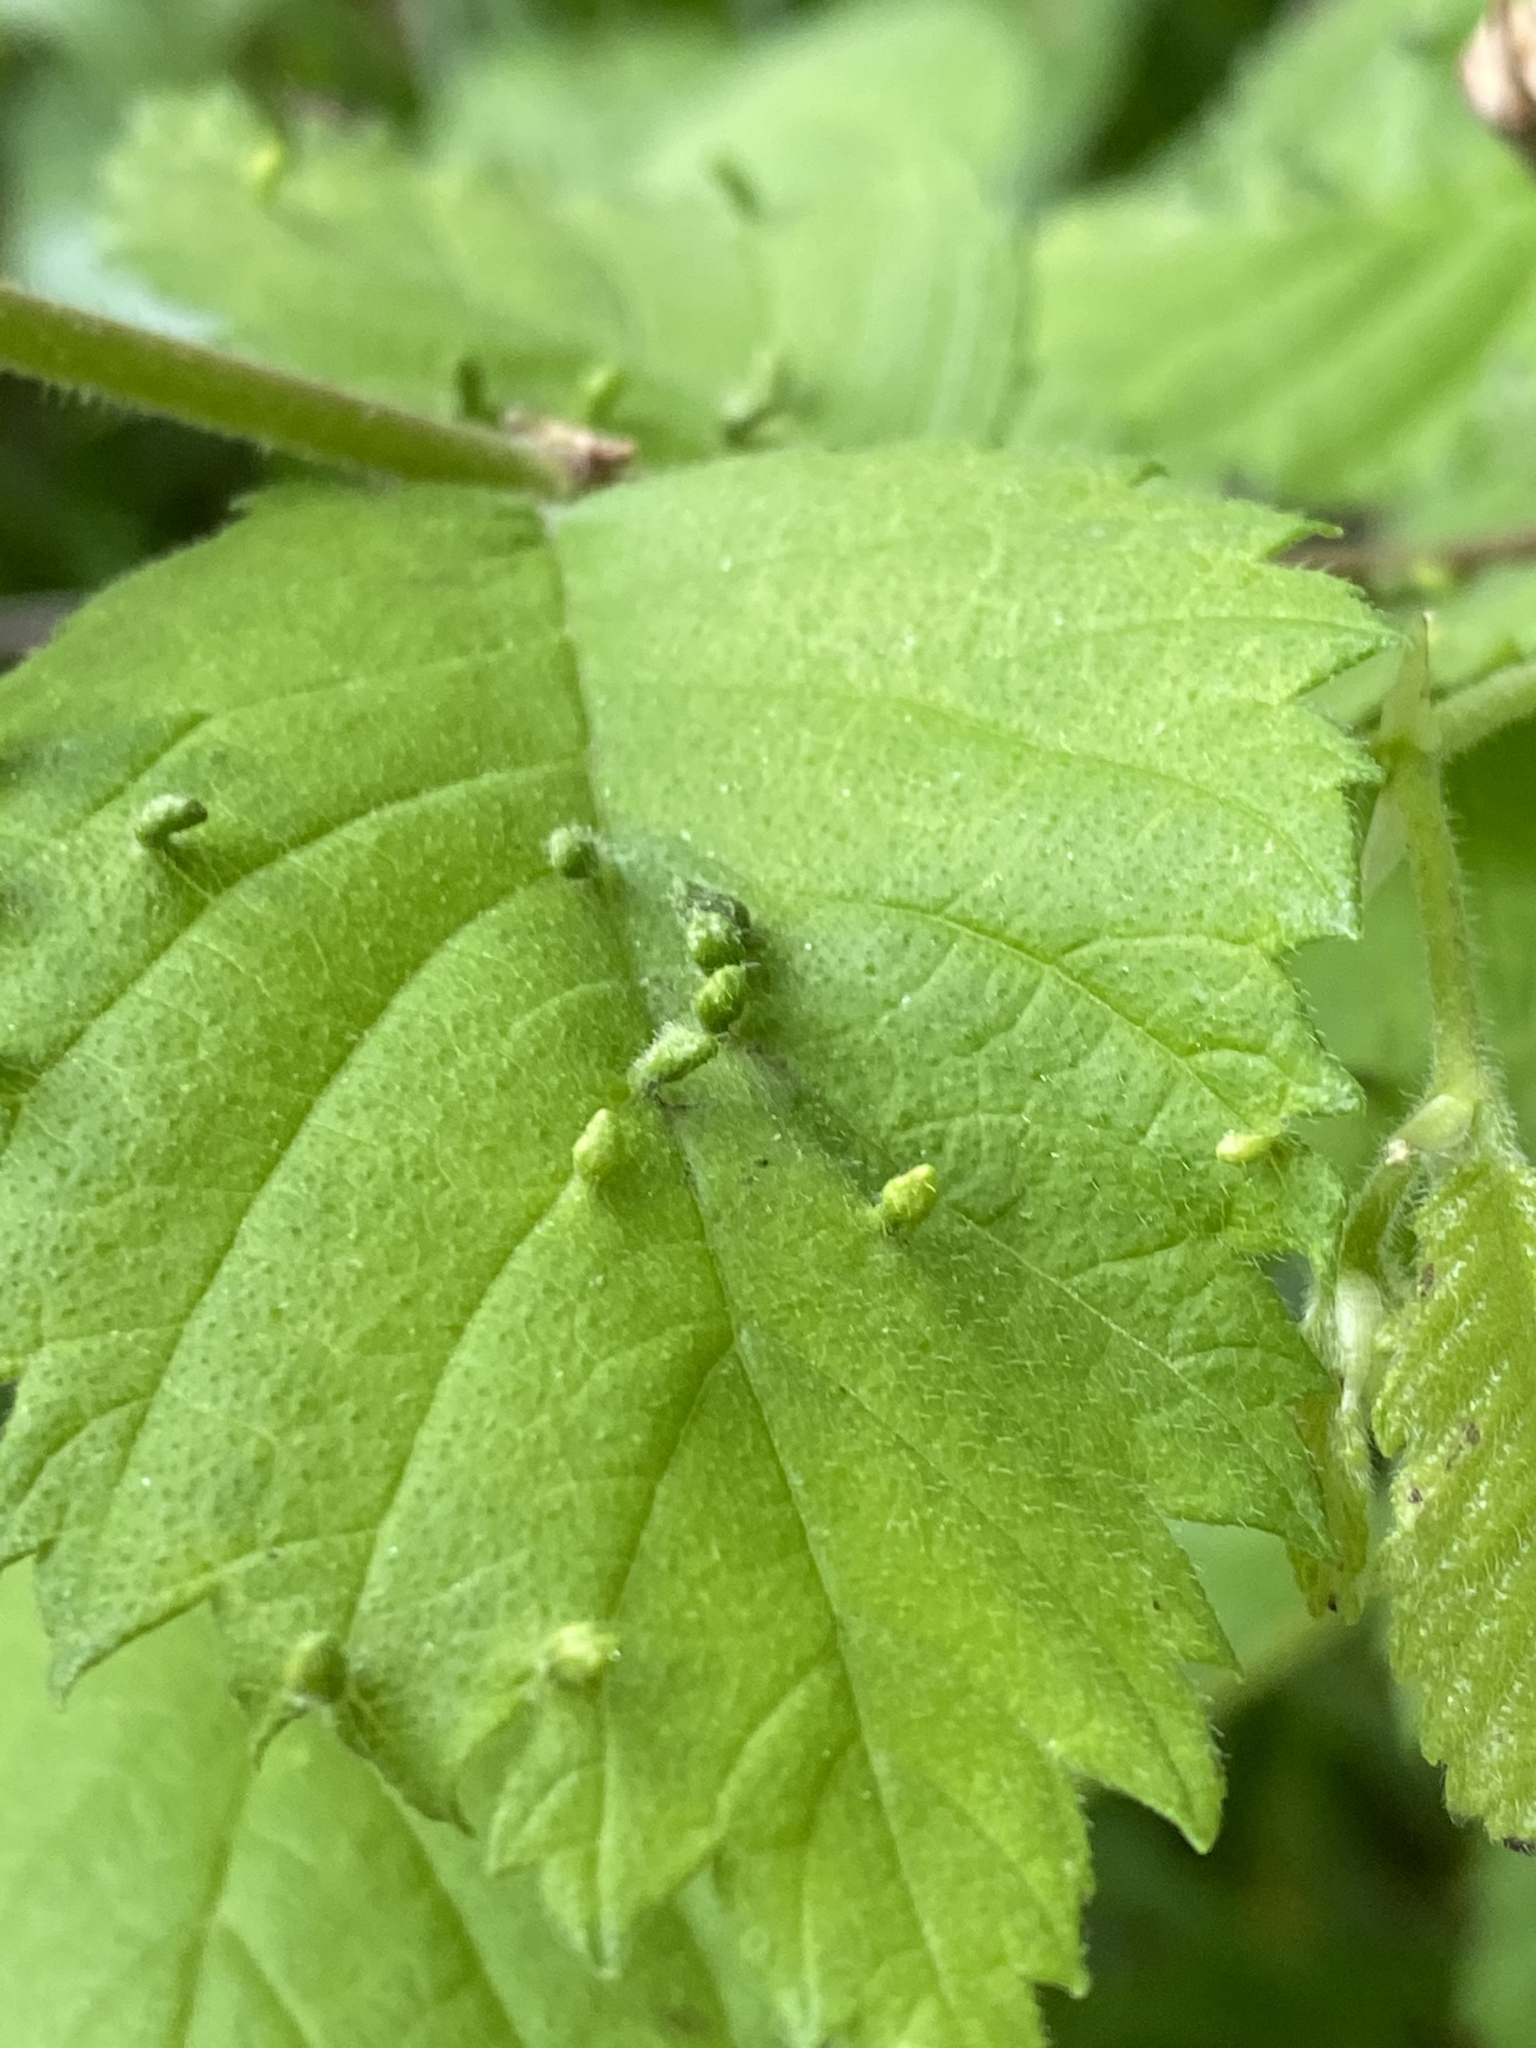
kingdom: Animalia
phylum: Arthropoda
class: Arachnida
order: Trombidiformes
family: Eriophyidae
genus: Aceria
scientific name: Aceria
